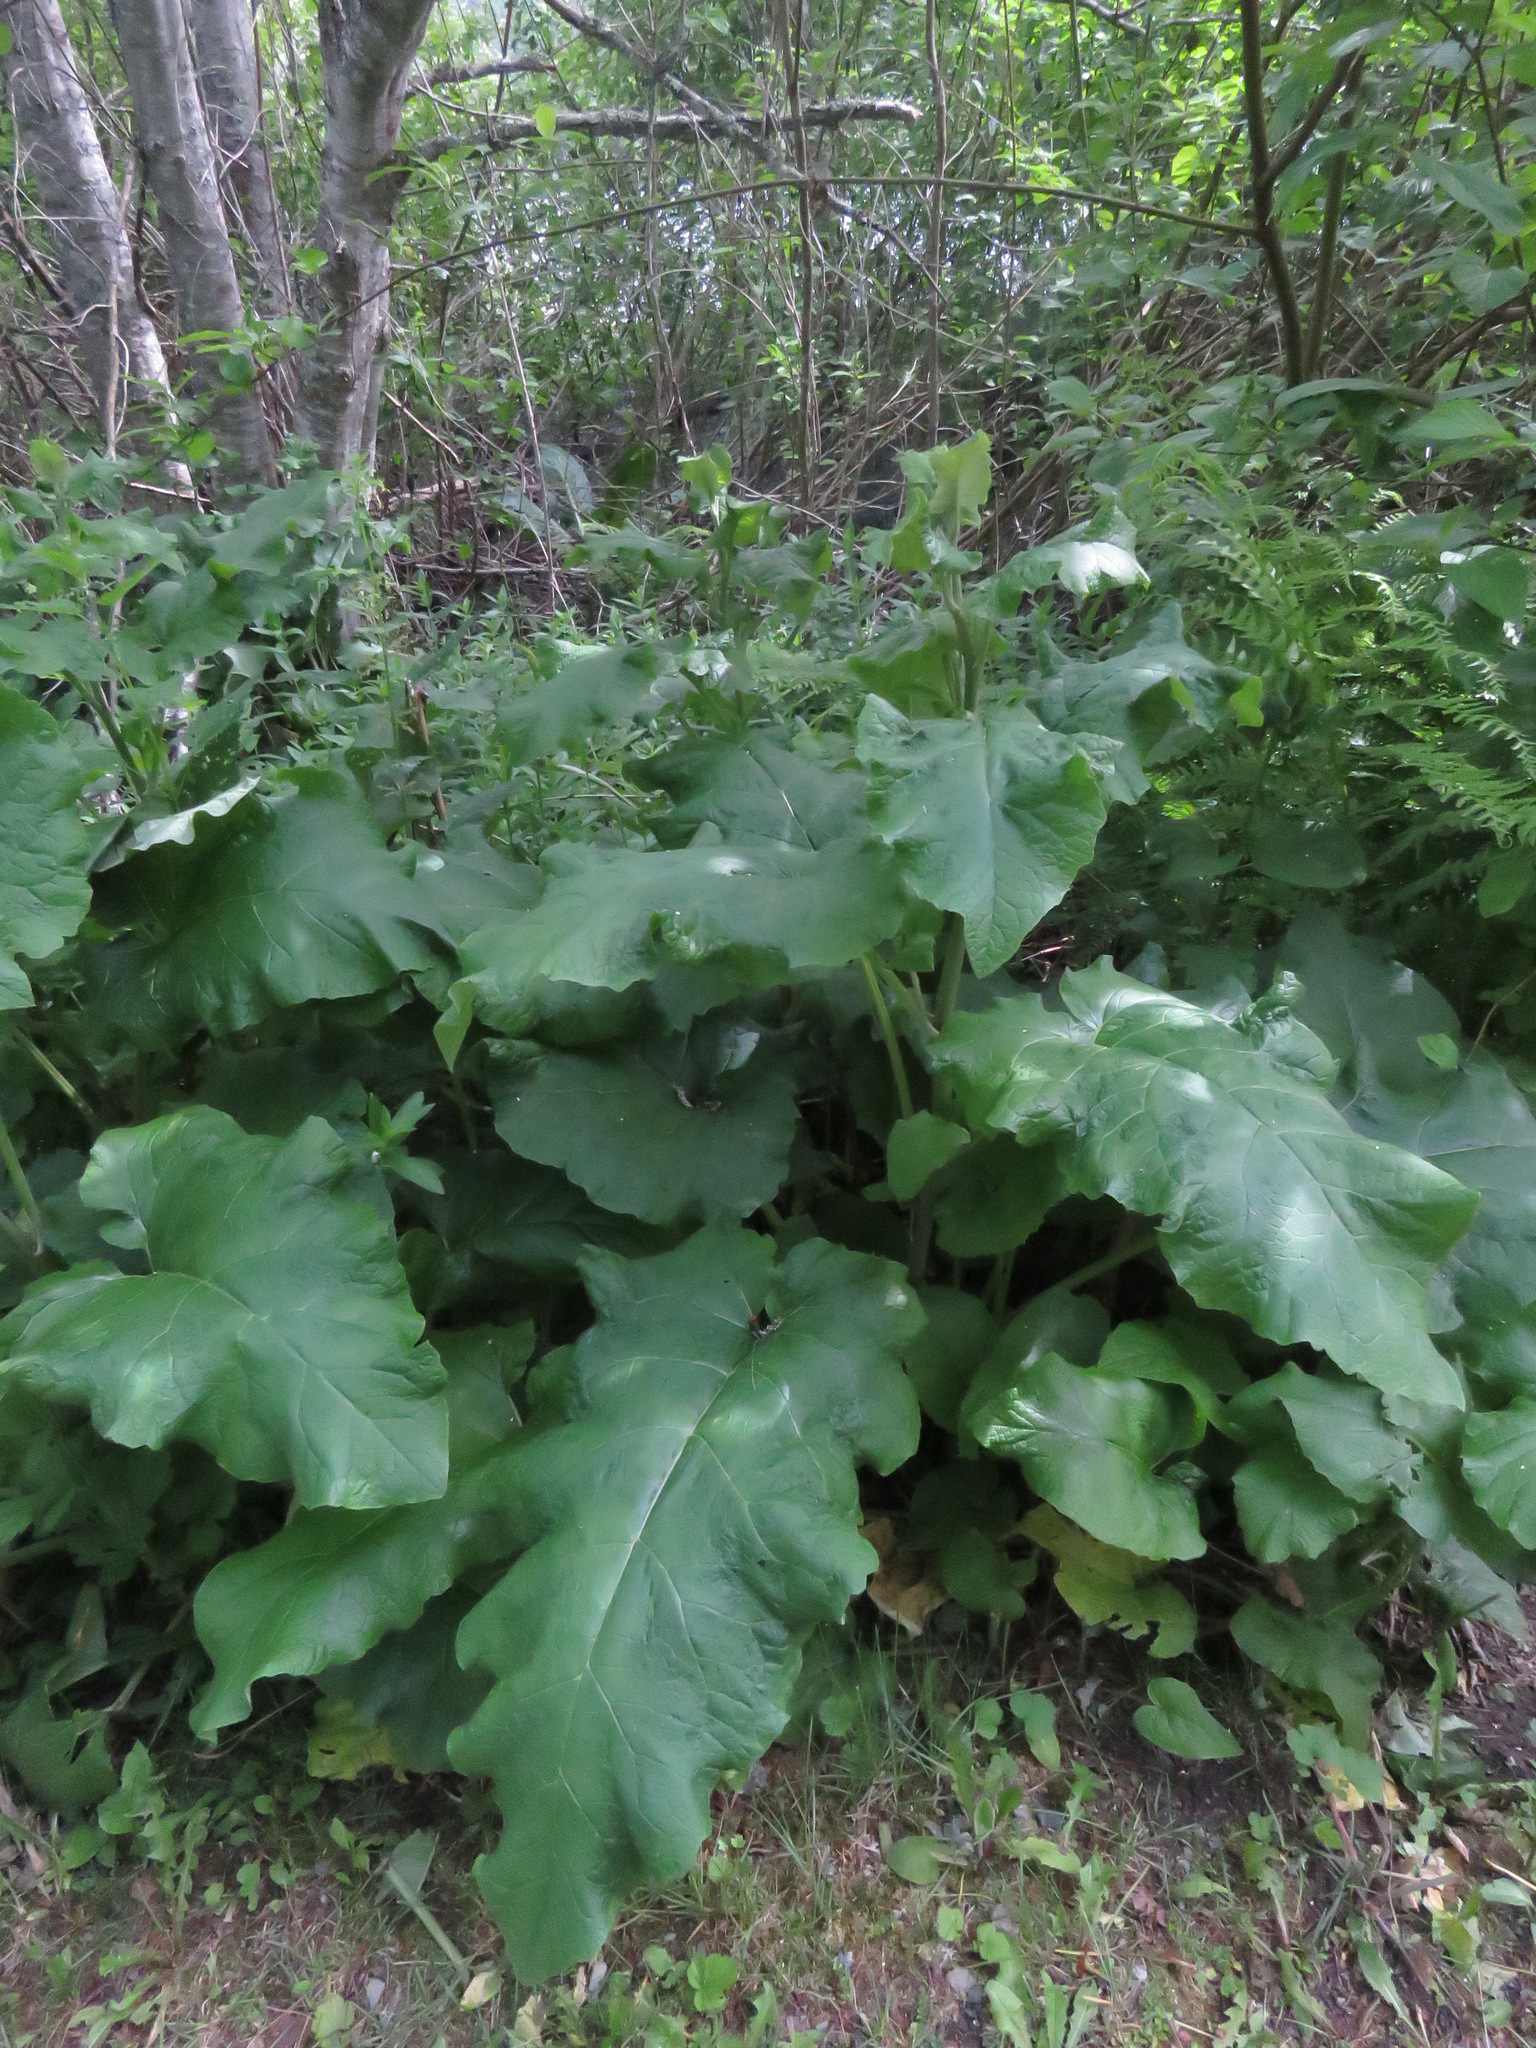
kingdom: Plantae
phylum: Tracheophyta
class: Magnoliopsida
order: Asterales
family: Asteraceae
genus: Arctium
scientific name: Arctium
